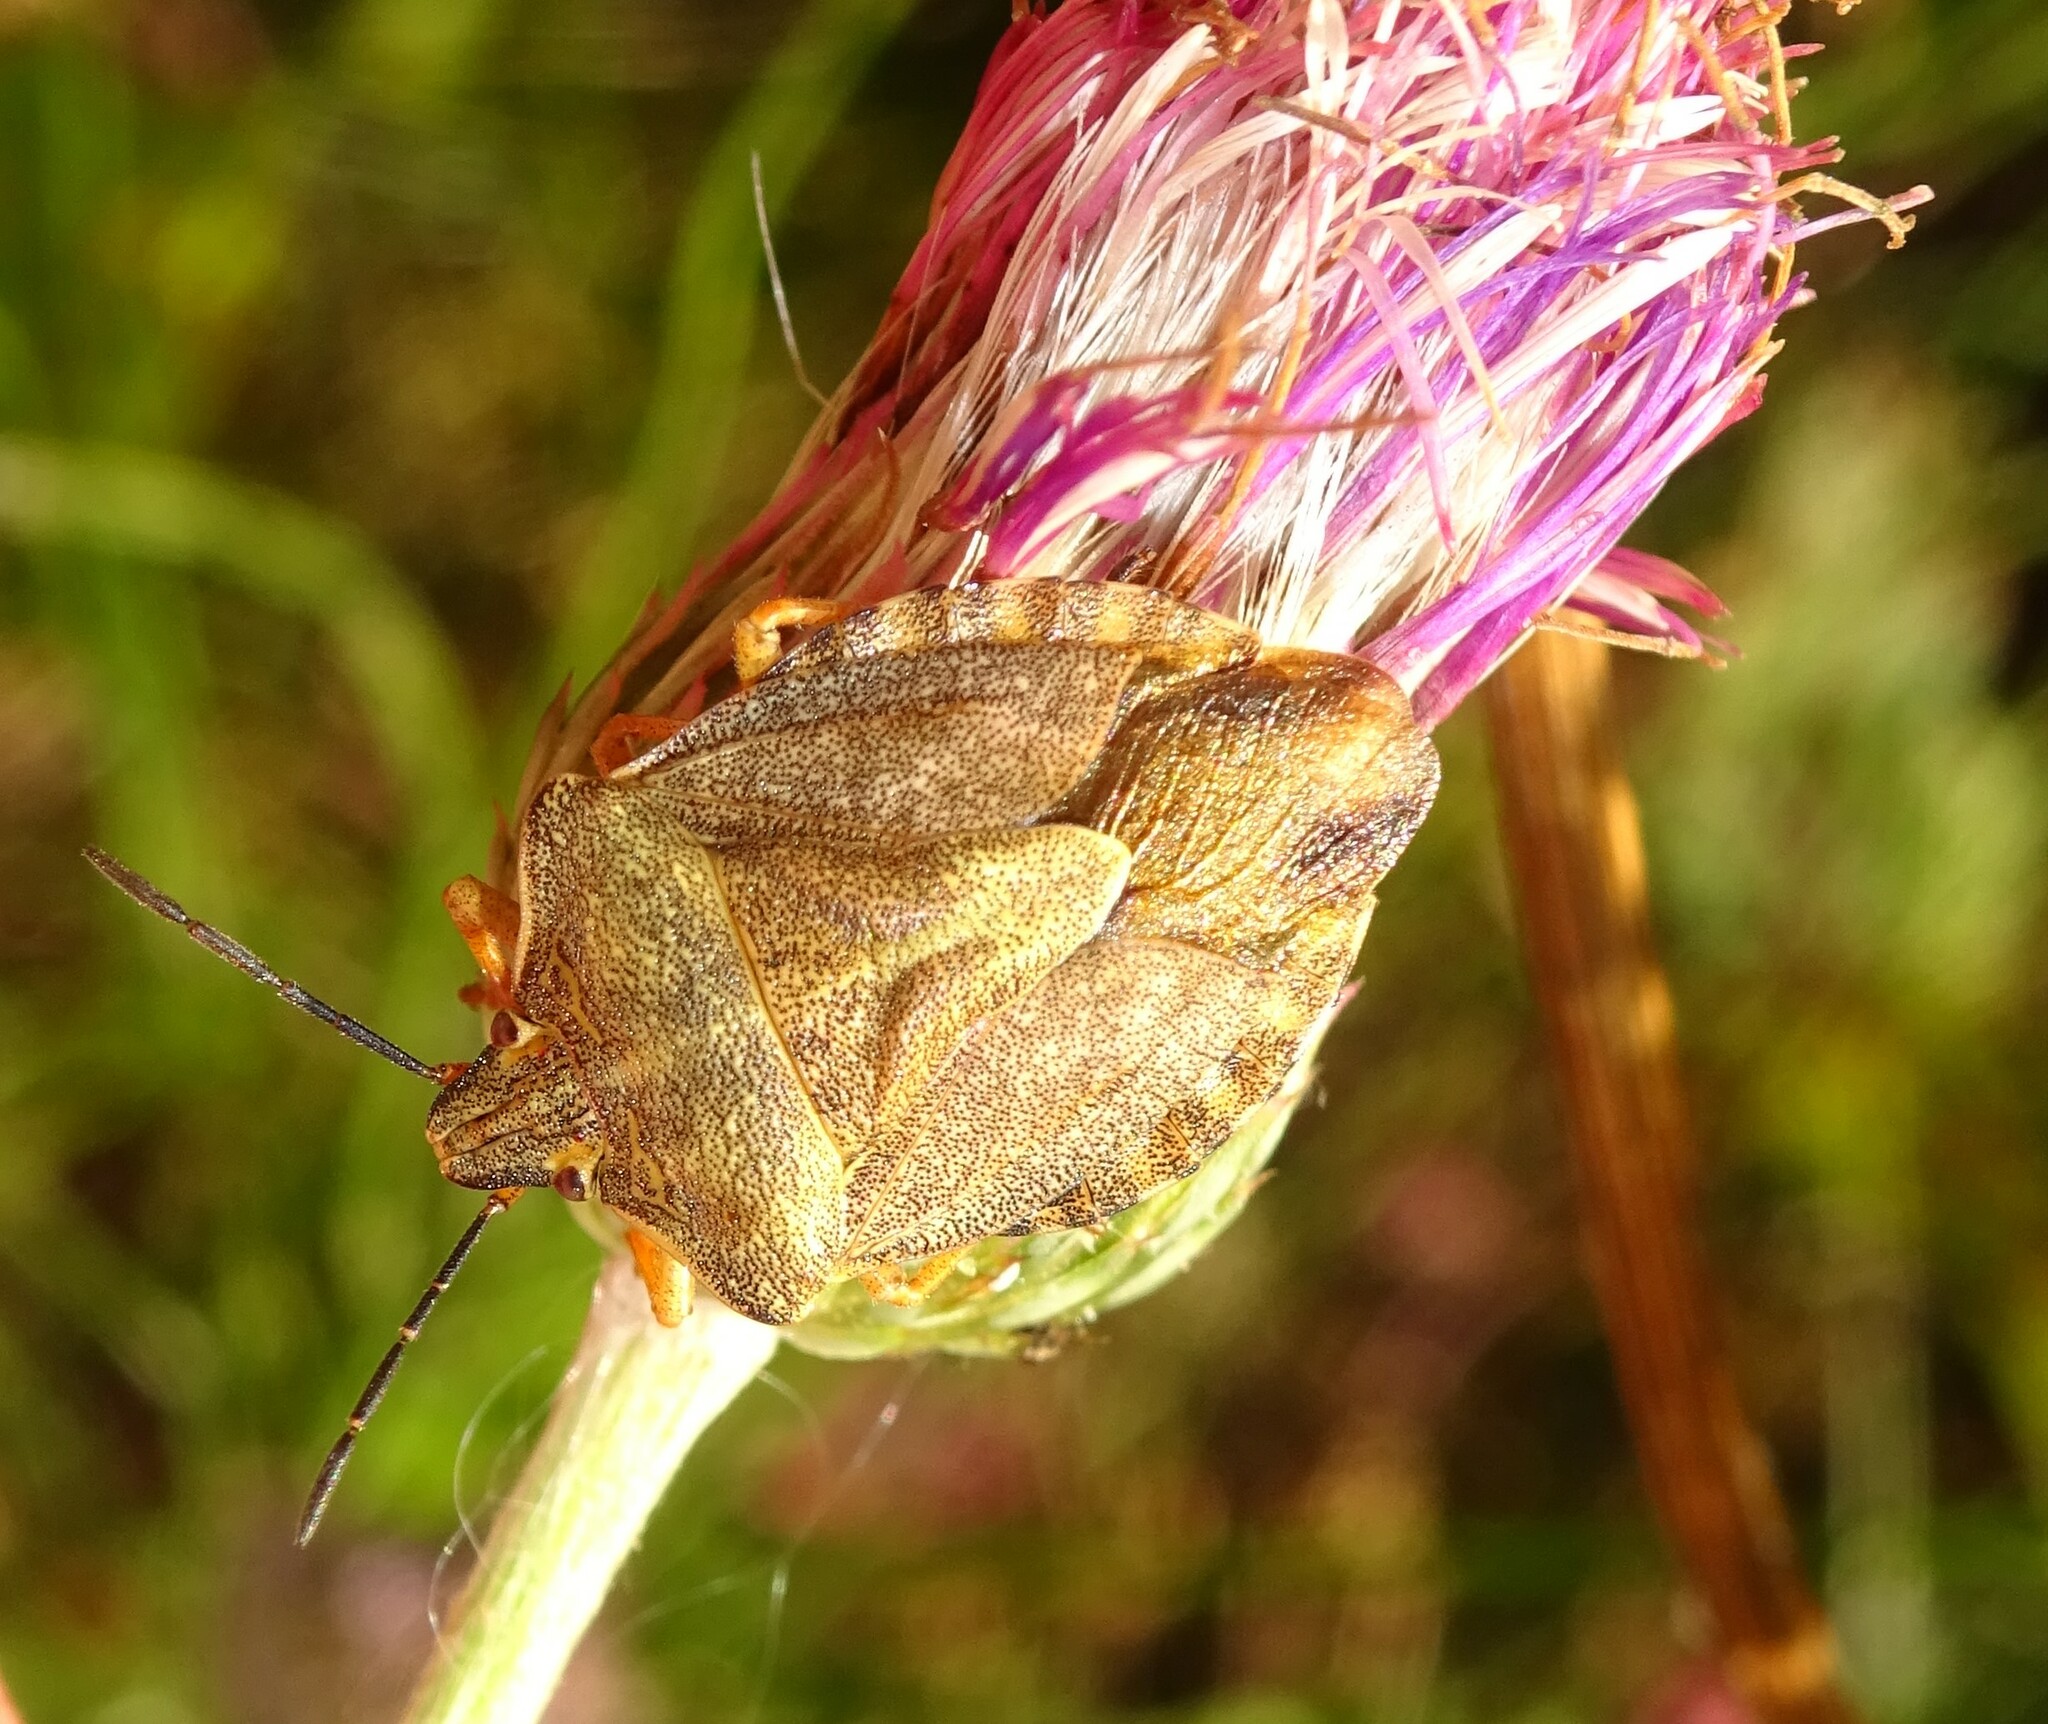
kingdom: Animalia
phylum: Arthropoda
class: Insecta
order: Hemiptera
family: Pentatomidae
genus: Carpocoris
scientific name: Carpocoris melanocerus
